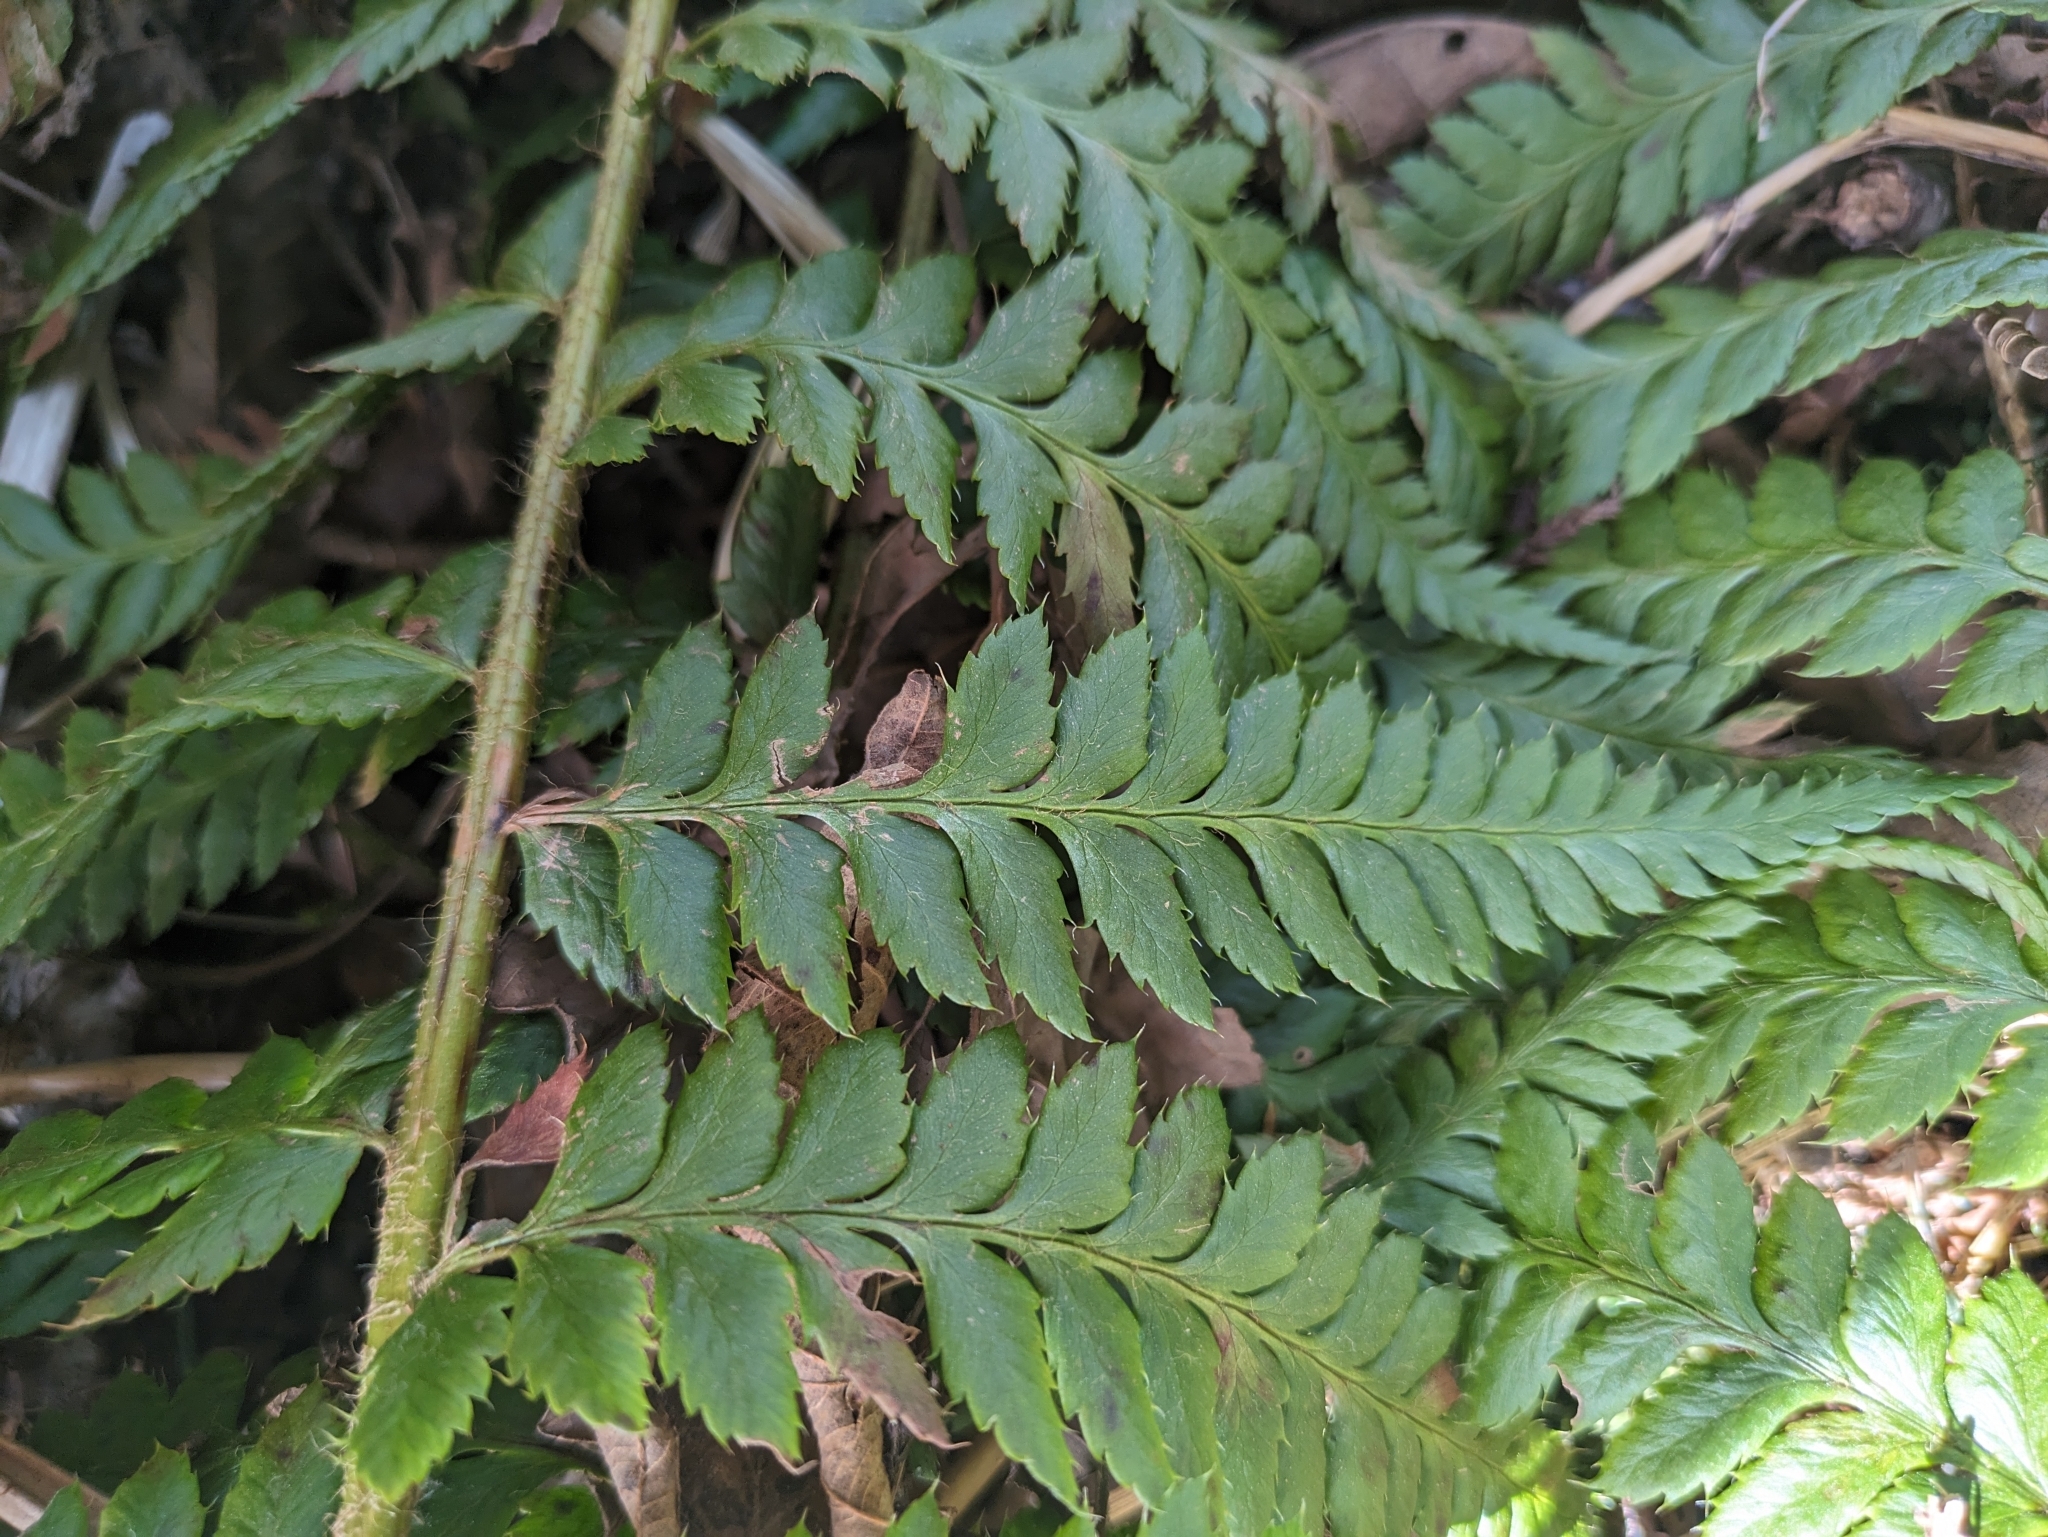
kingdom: Plantae
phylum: Tracheophyta
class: Polypodiopsida
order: Polypodiales
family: Dryopteridaceae
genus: Polystichum
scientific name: Polystichum andersonii
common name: Anderson's holly fern
